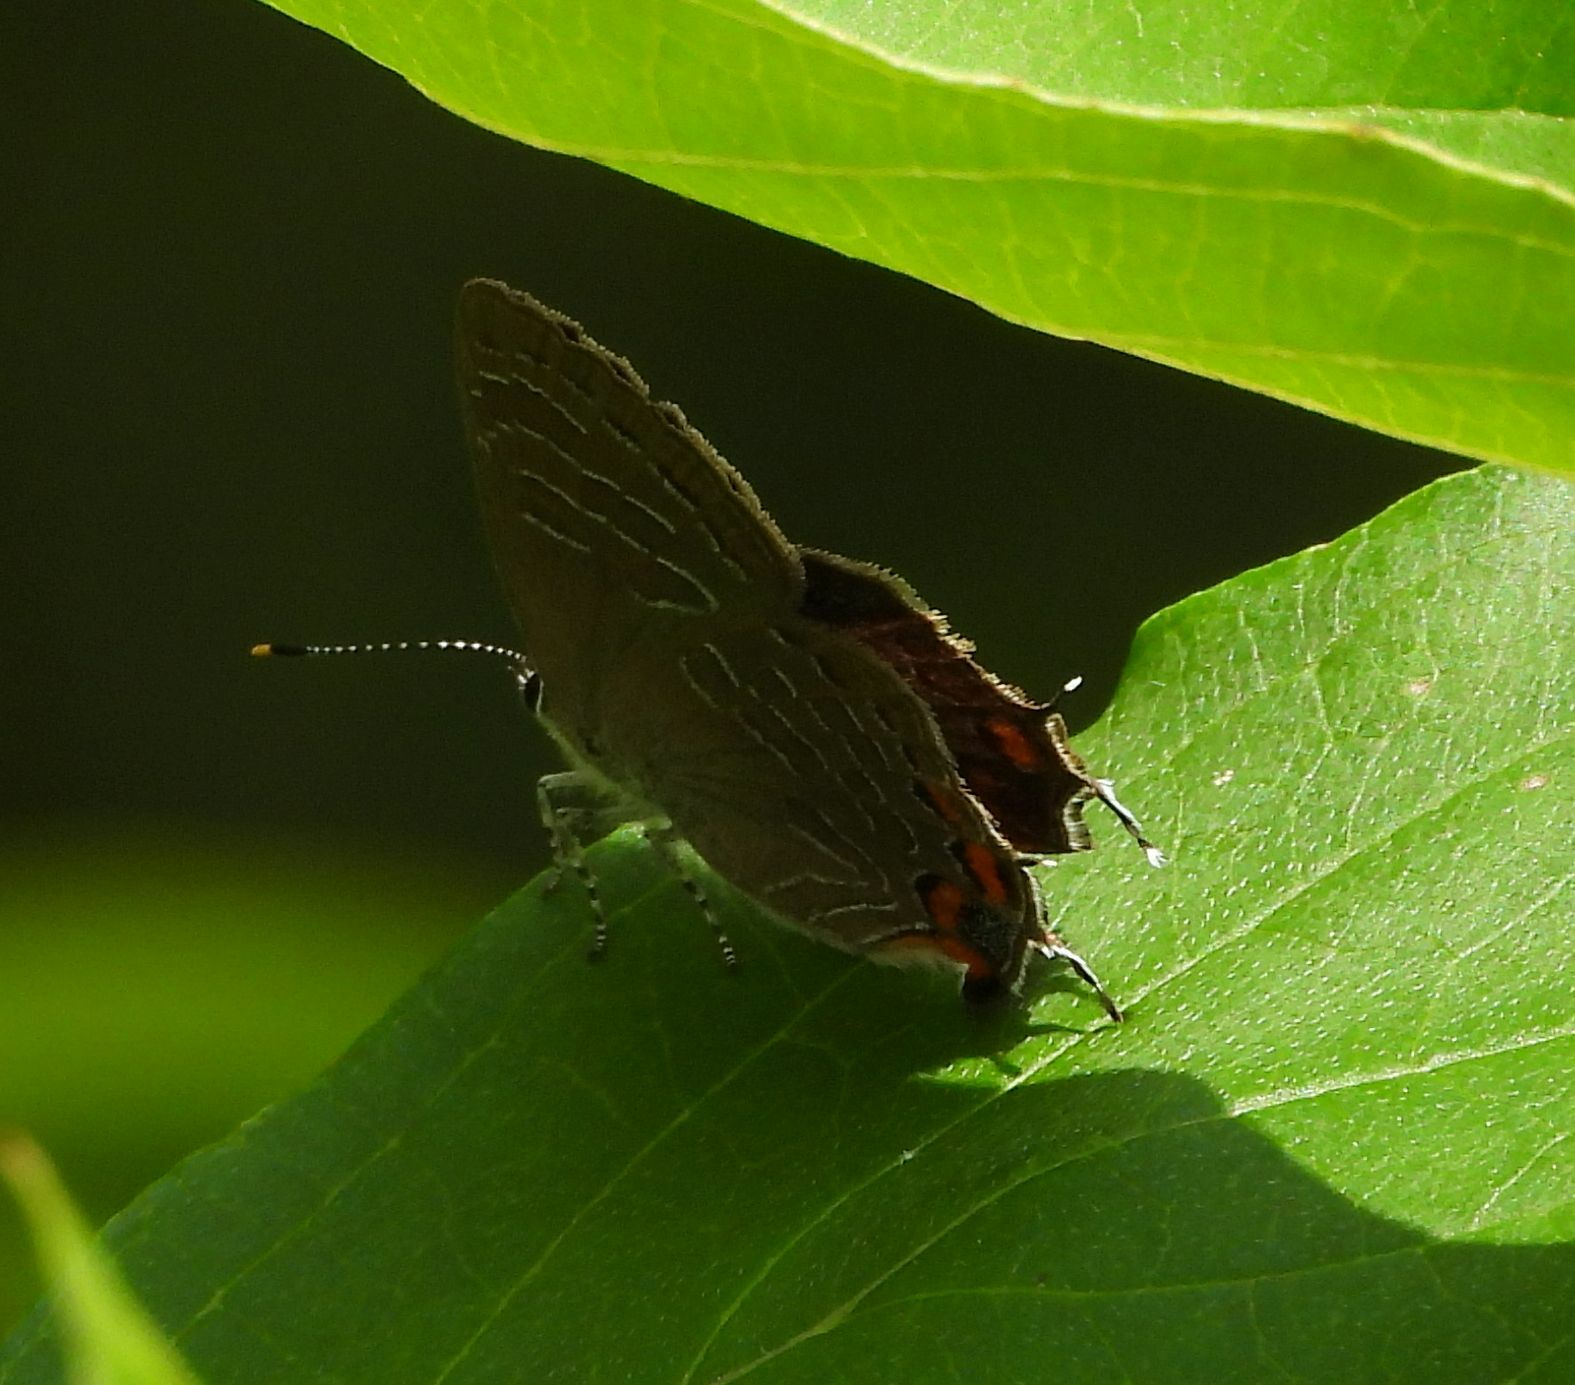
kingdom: Animalia
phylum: Arthropoda
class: Insecta
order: Lepidoptera
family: Lycaenidae
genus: Satyrium
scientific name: Satyrium liparops
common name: Striped hairstreak
